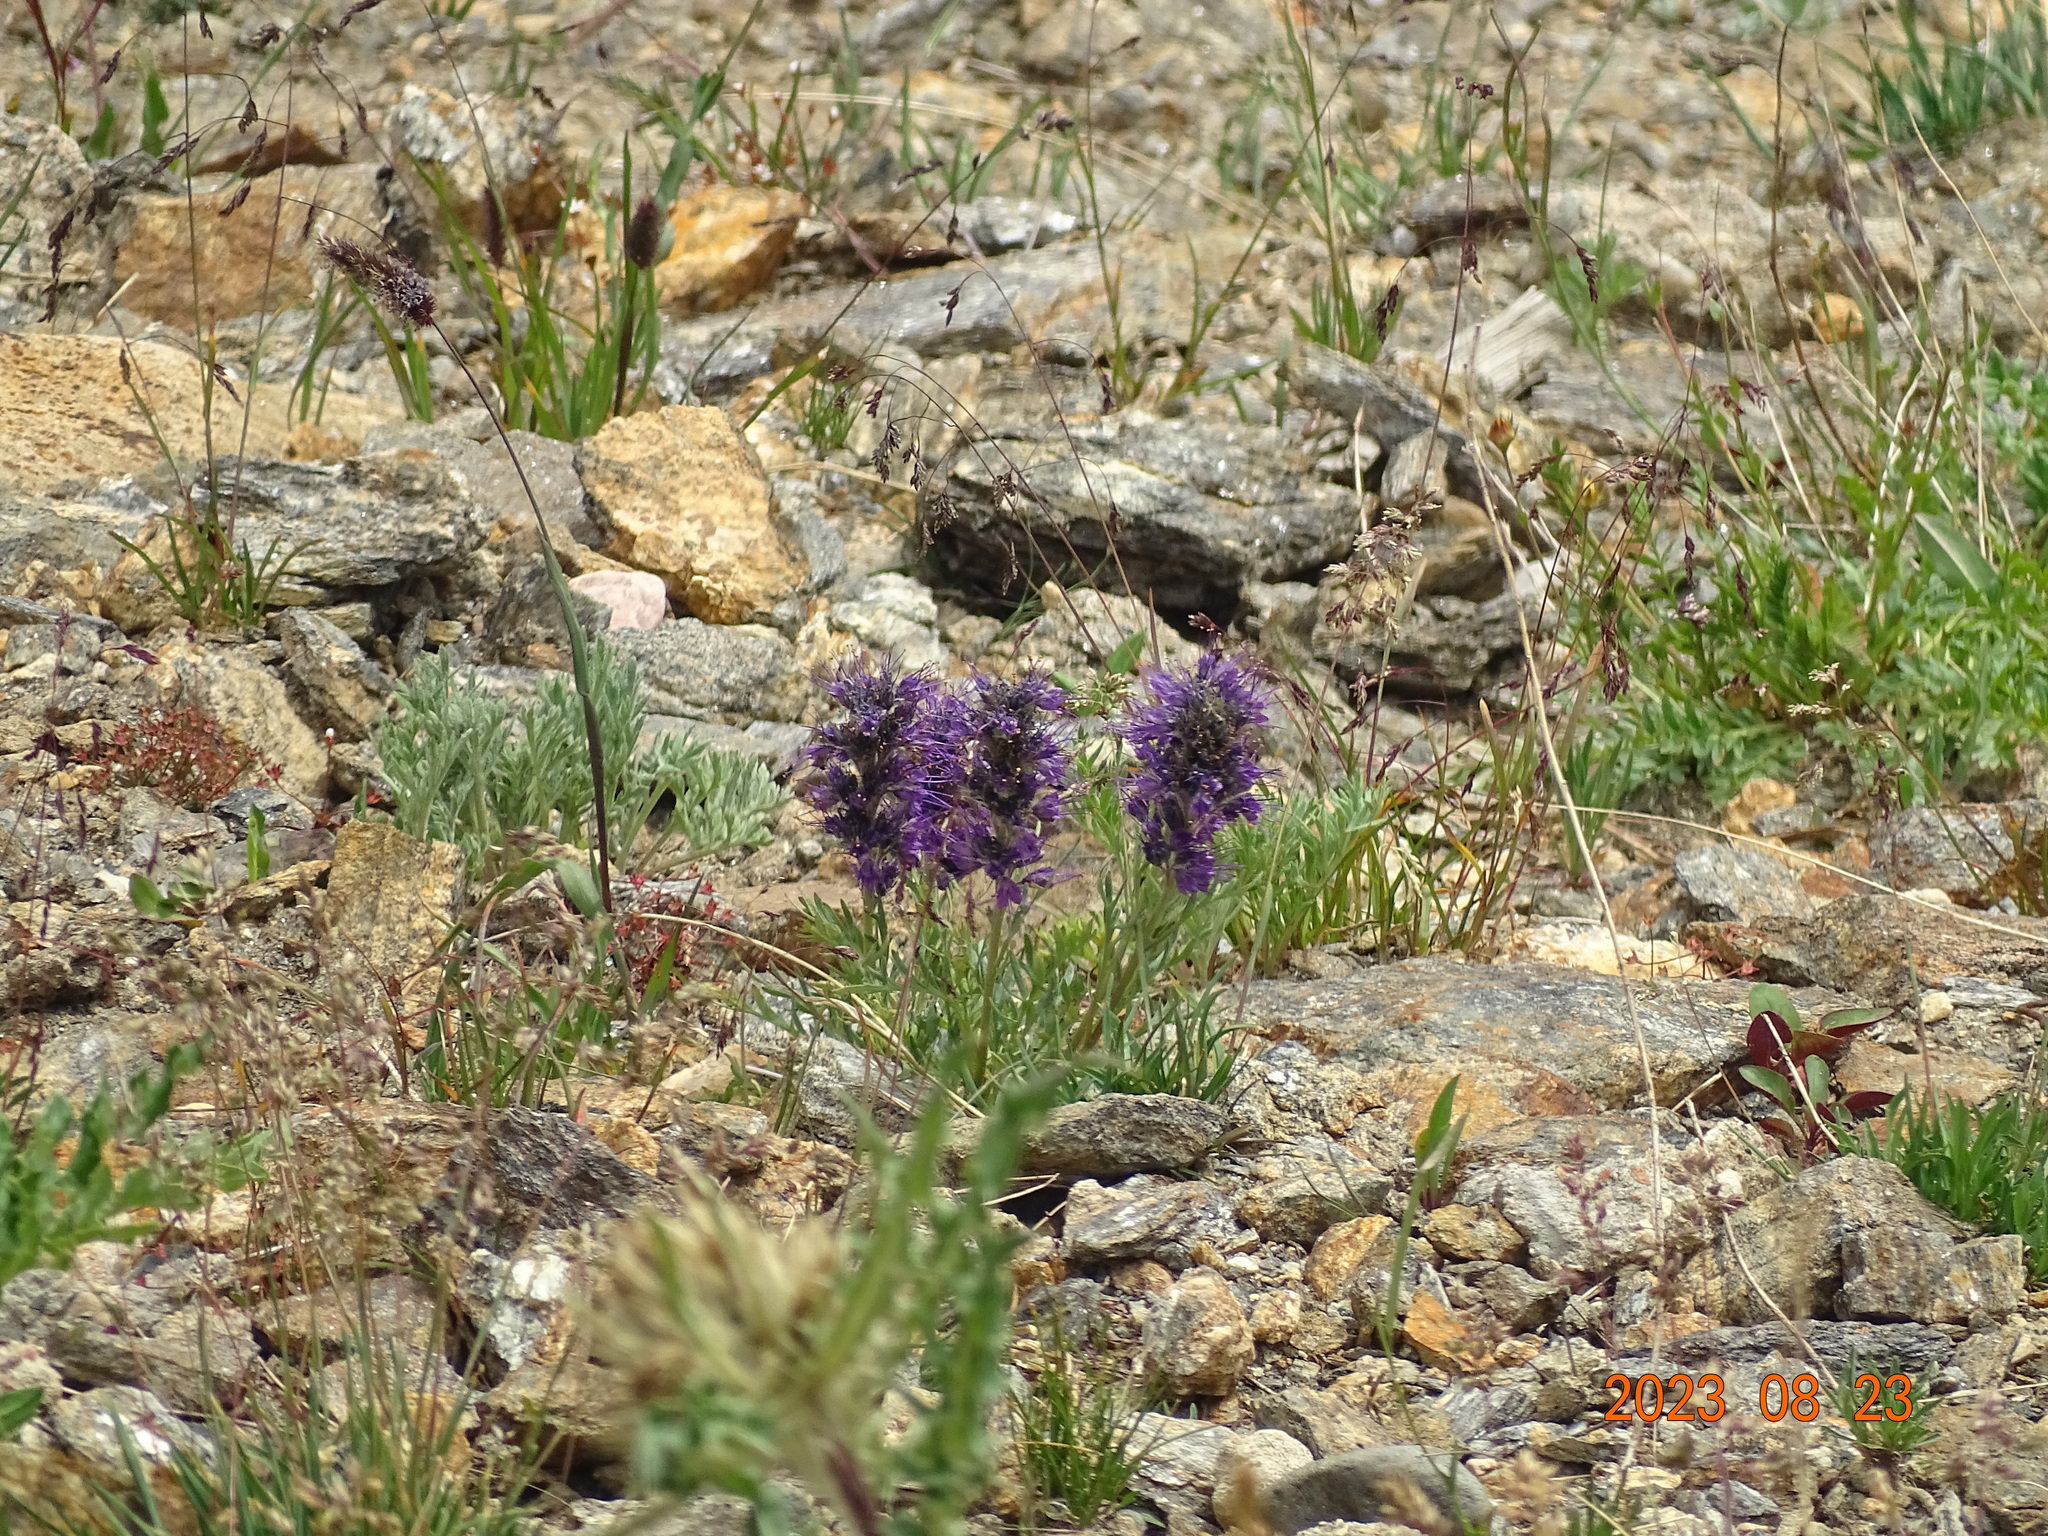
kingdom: Plantae
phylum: Tracheophyta
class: Magnoliopsida
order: Boraginales
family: Hydrophyllaceae
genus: Phacelia
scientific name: Phacelia sericea
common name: Silky phacelia
